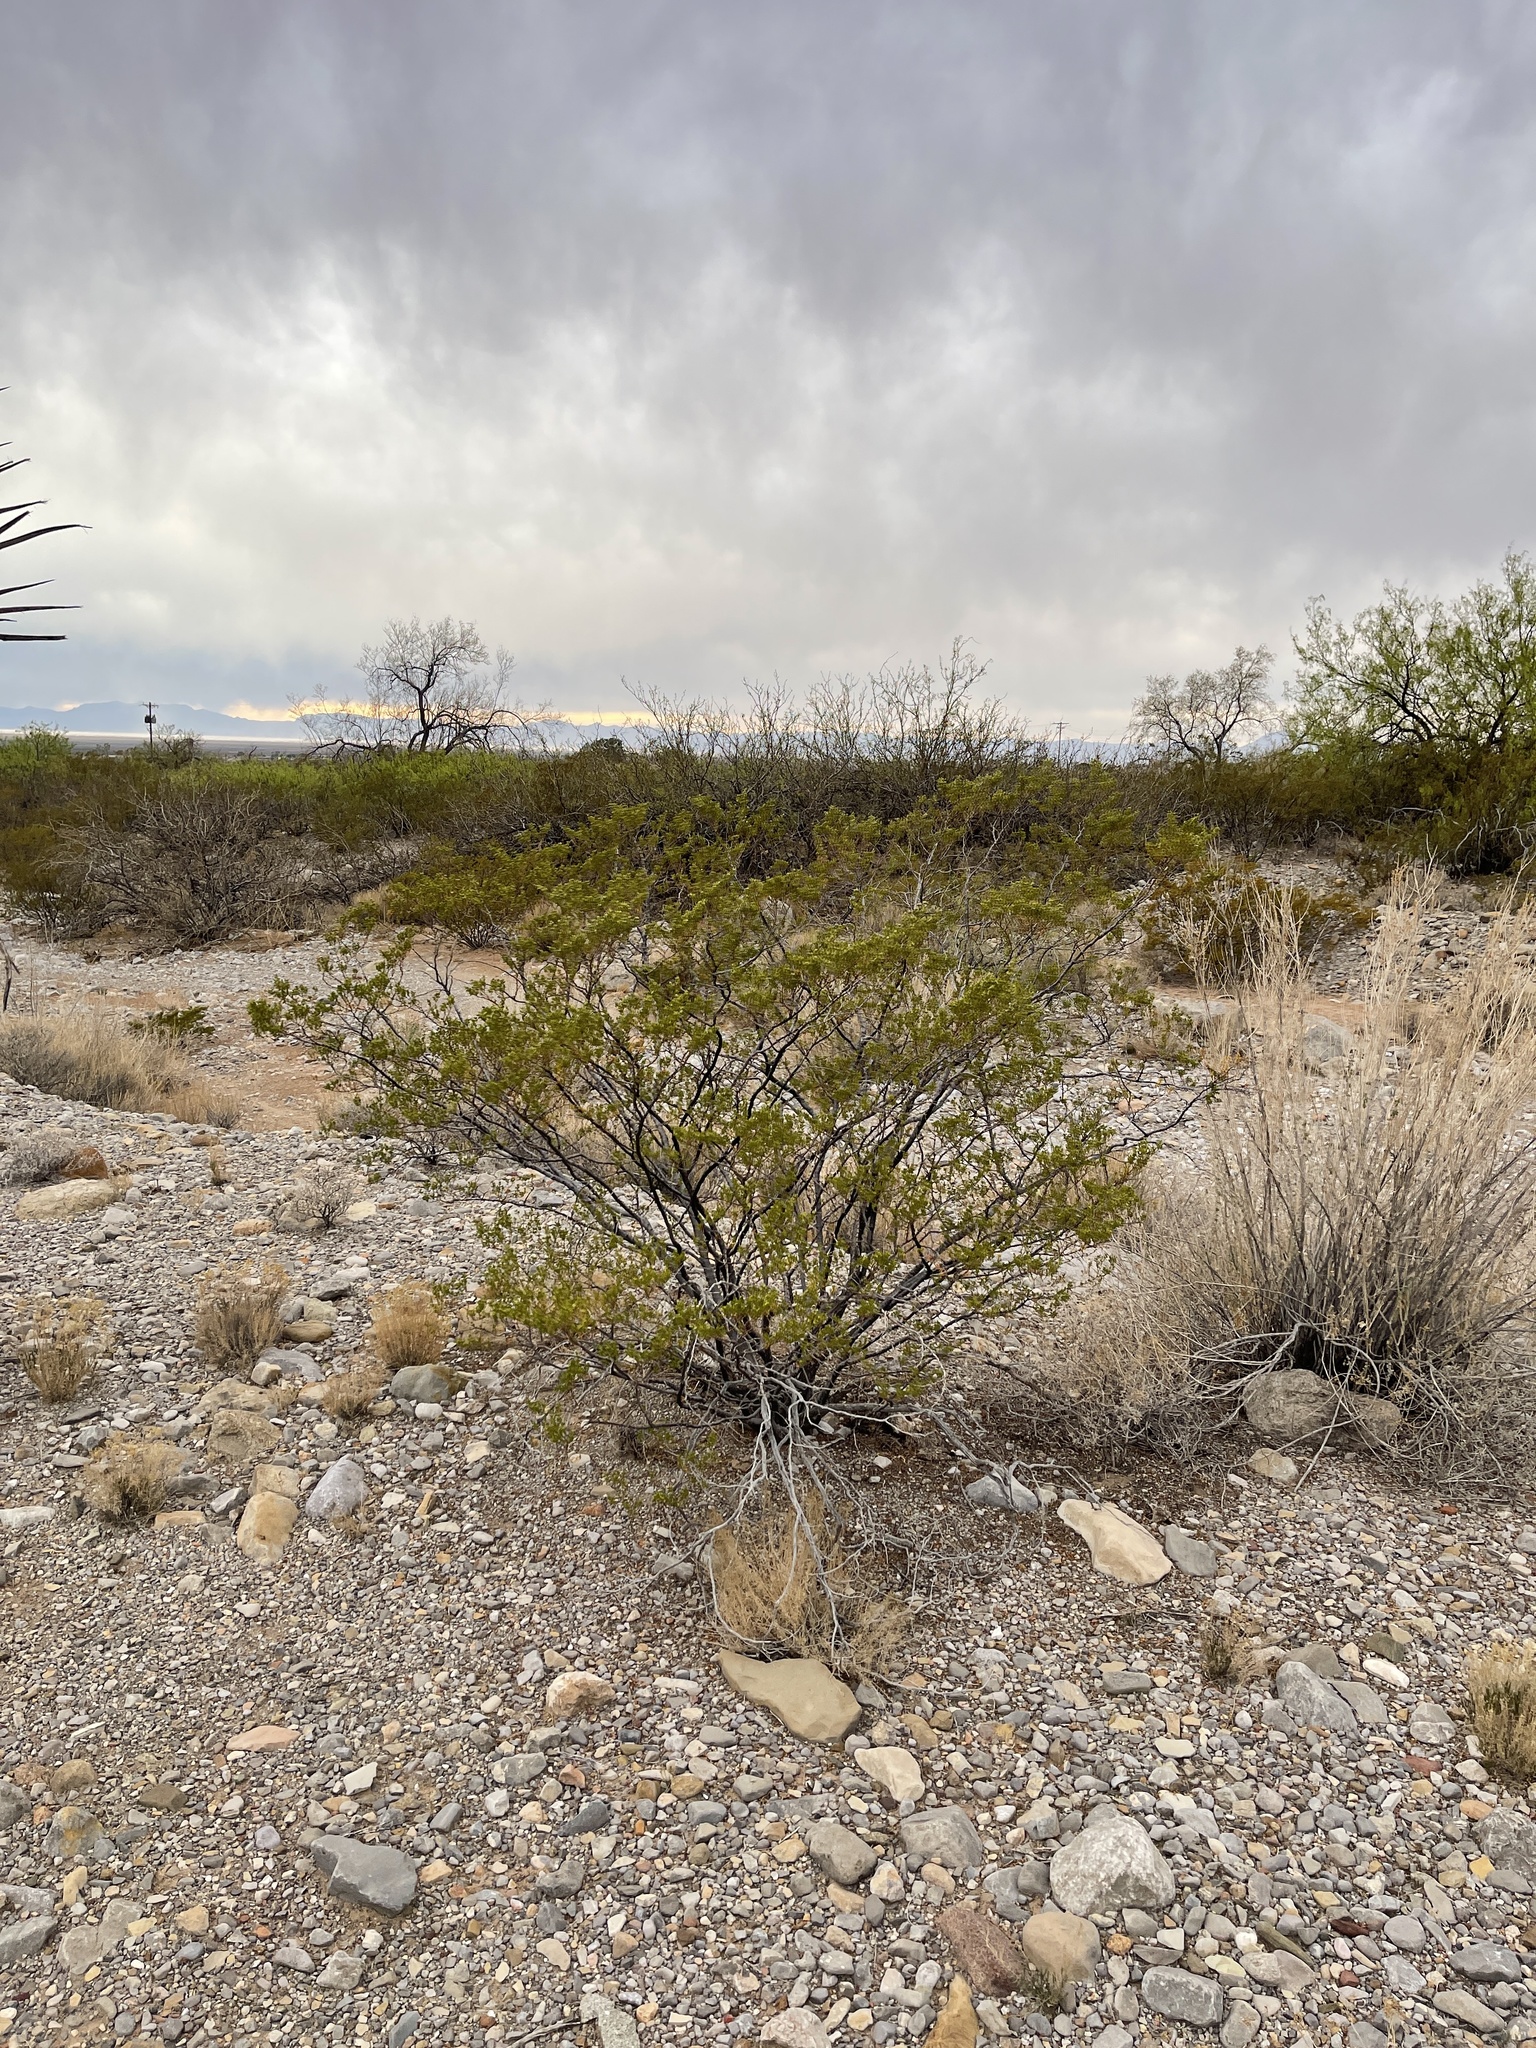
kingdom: Plantae
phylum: Tracheophyta
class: Magnoliopsida
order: Zygophyllales
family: Zygophyllaceae
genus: Larrea
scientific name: Larrea tridentata
